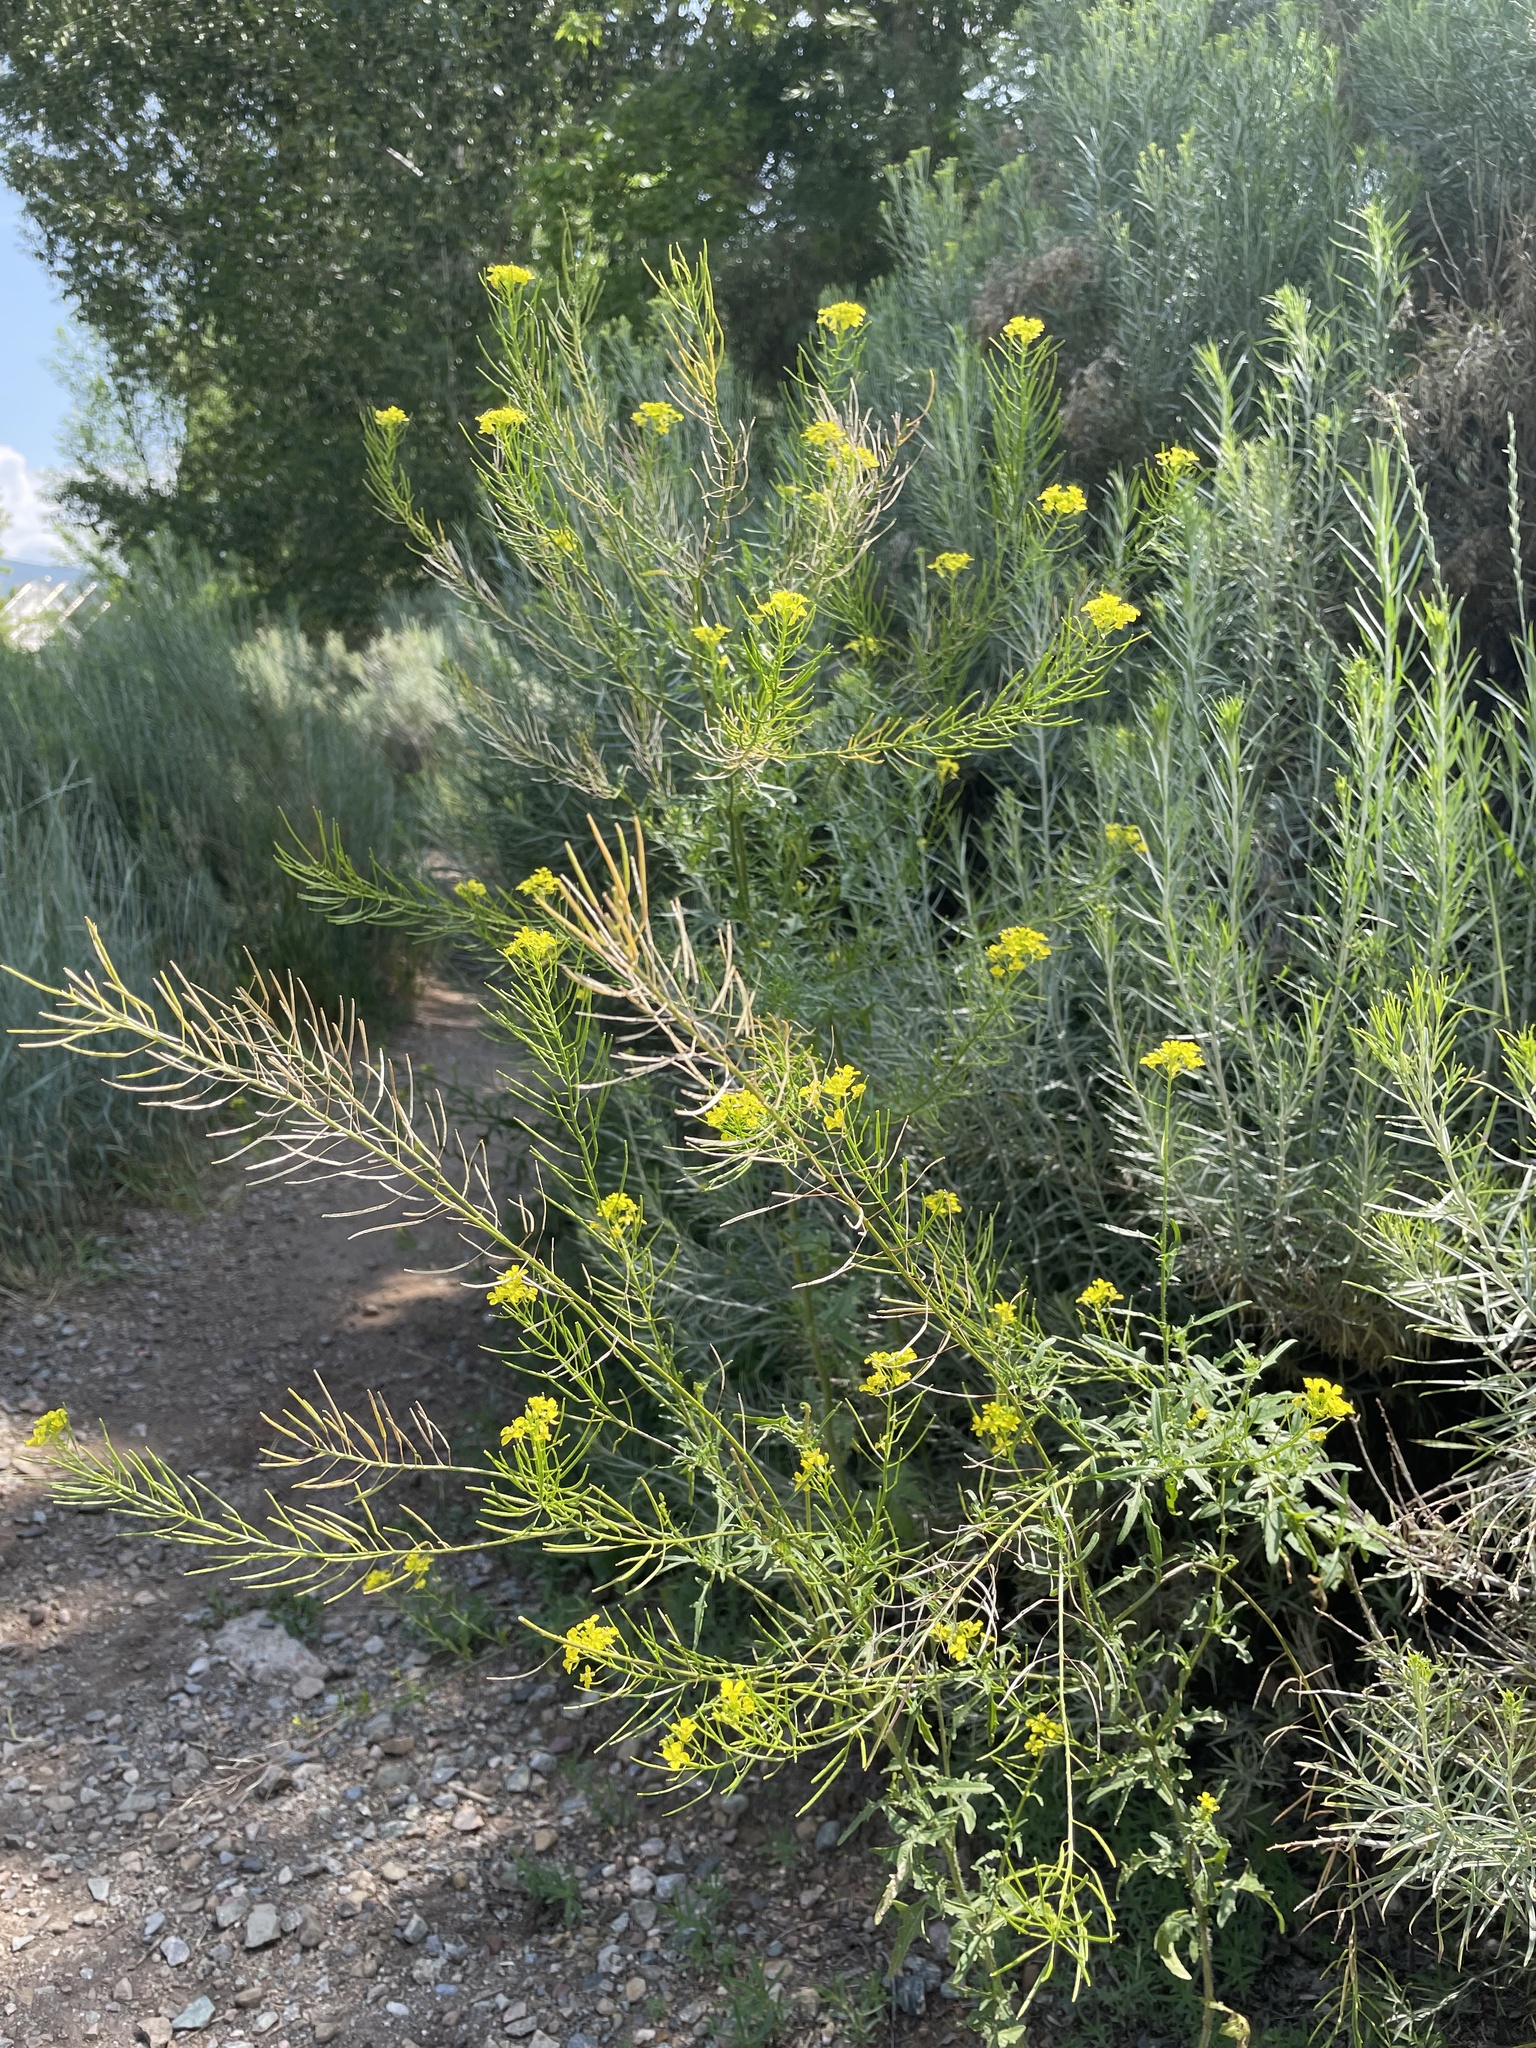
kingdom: Plantae
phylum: Tracheophyta
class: Magnoliopsida
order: Brassicales
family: Brassicaceae
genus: Sisymbrium
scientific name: Sisymbrium altissimum
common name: Tall rocket
